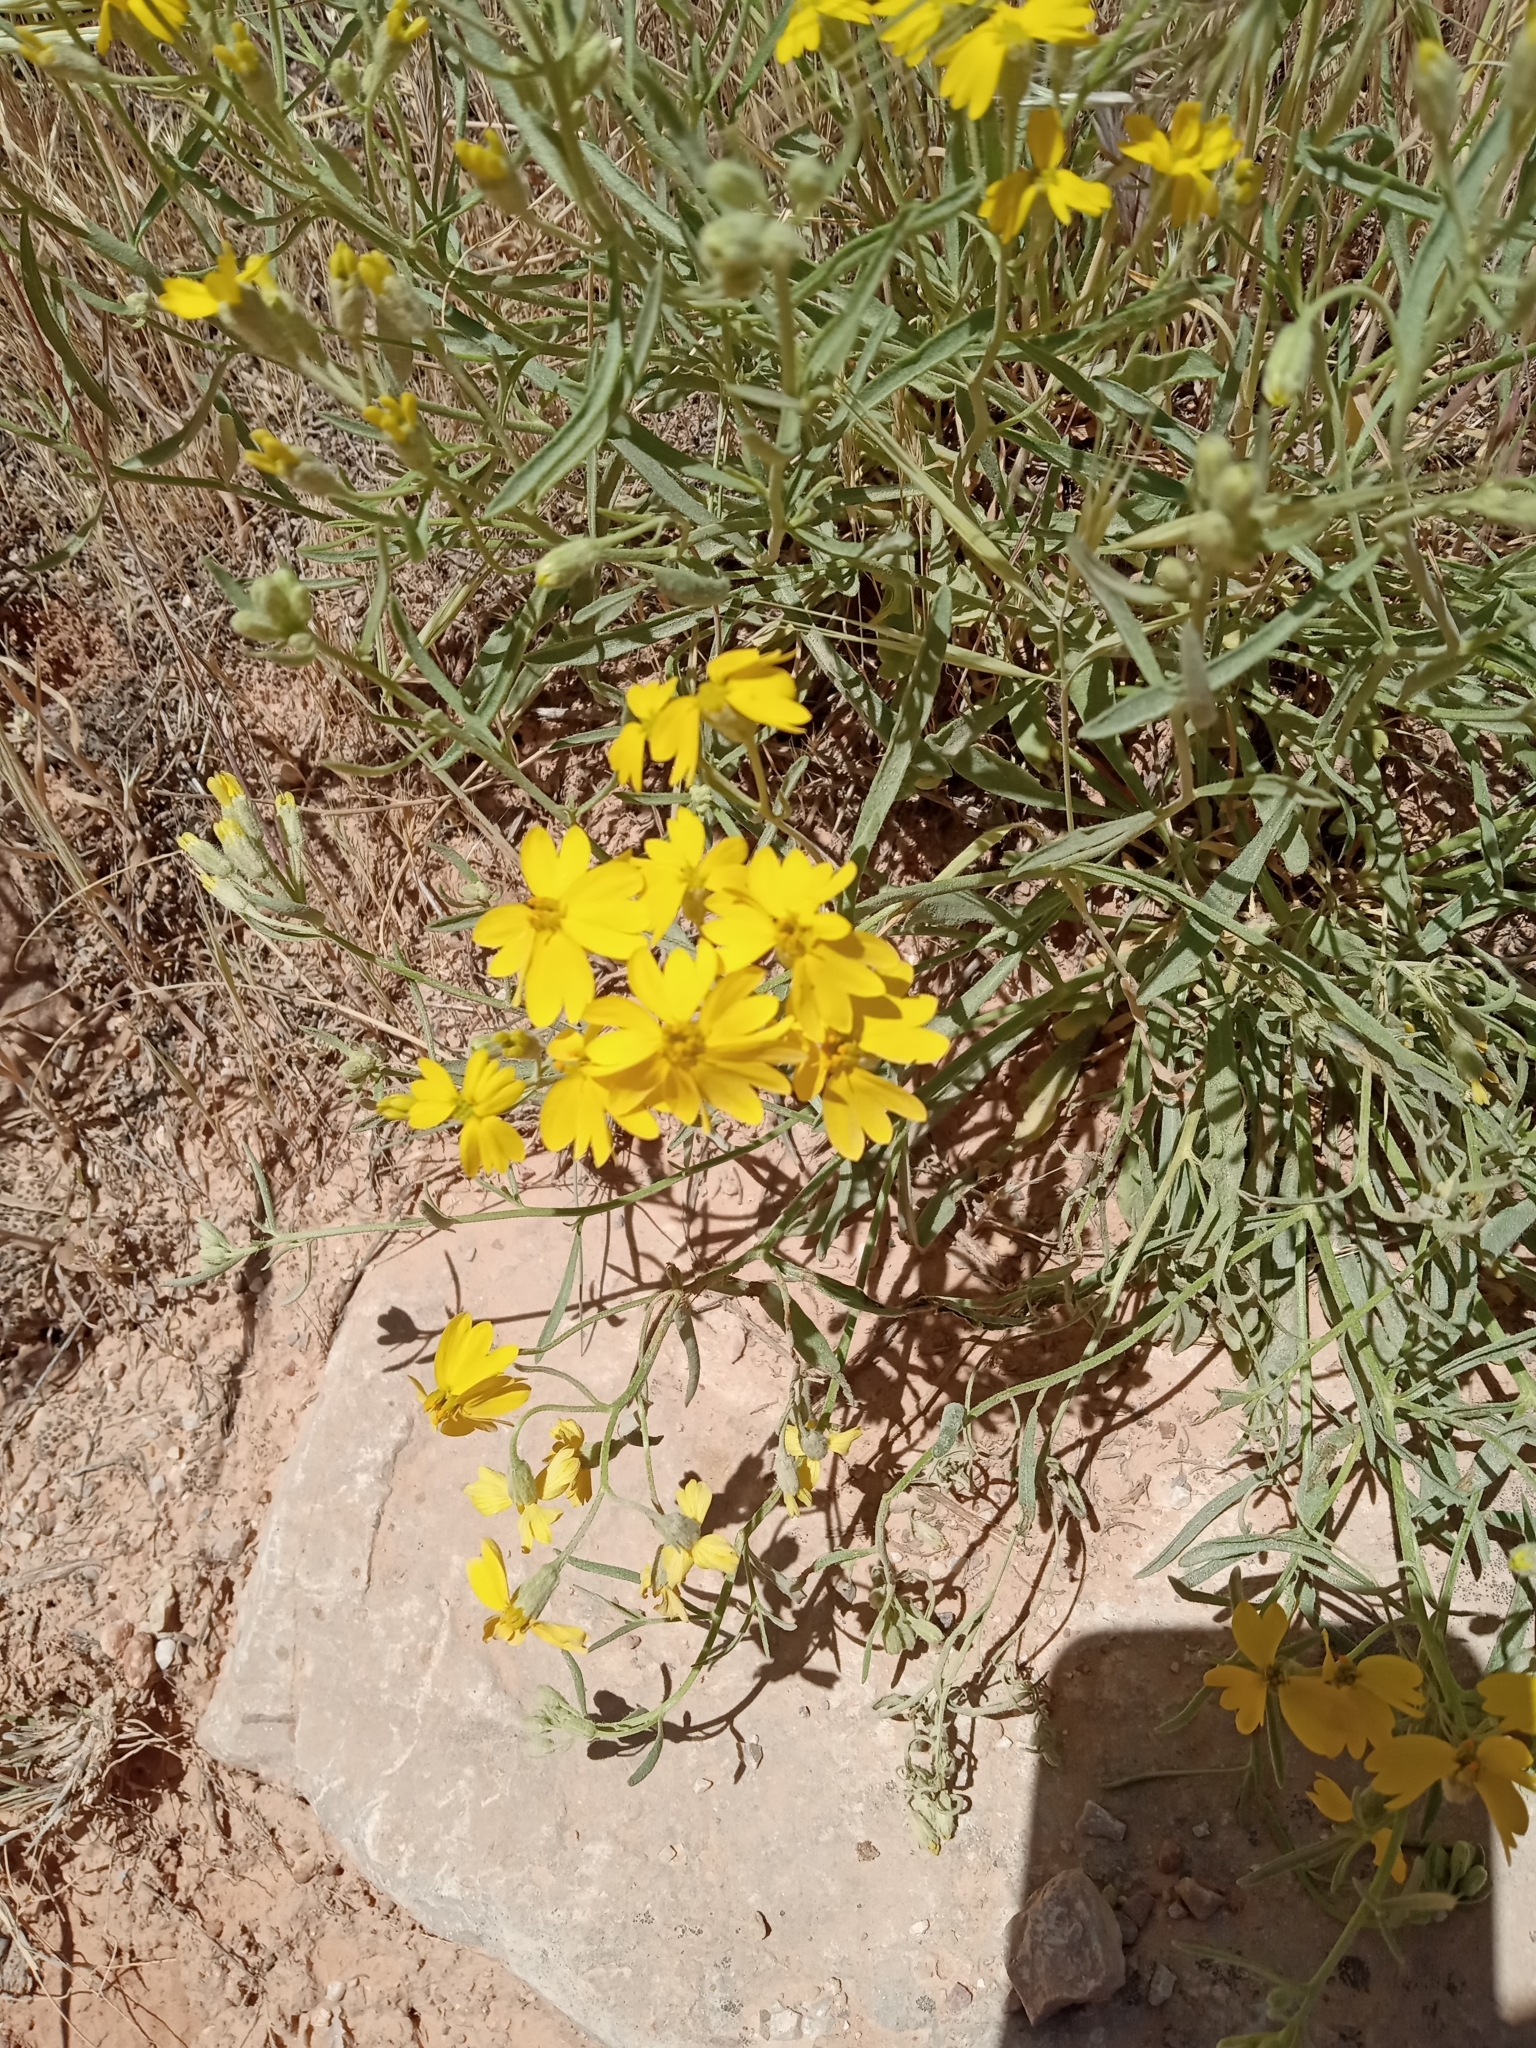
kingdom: Plantae
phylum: Tracheophyta
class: Magnoliopsida
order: Asterales
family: Asteraceae
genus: Psilostrophe
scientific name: Psilostrophe sparsiflora
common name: Green-stem paper-flower
